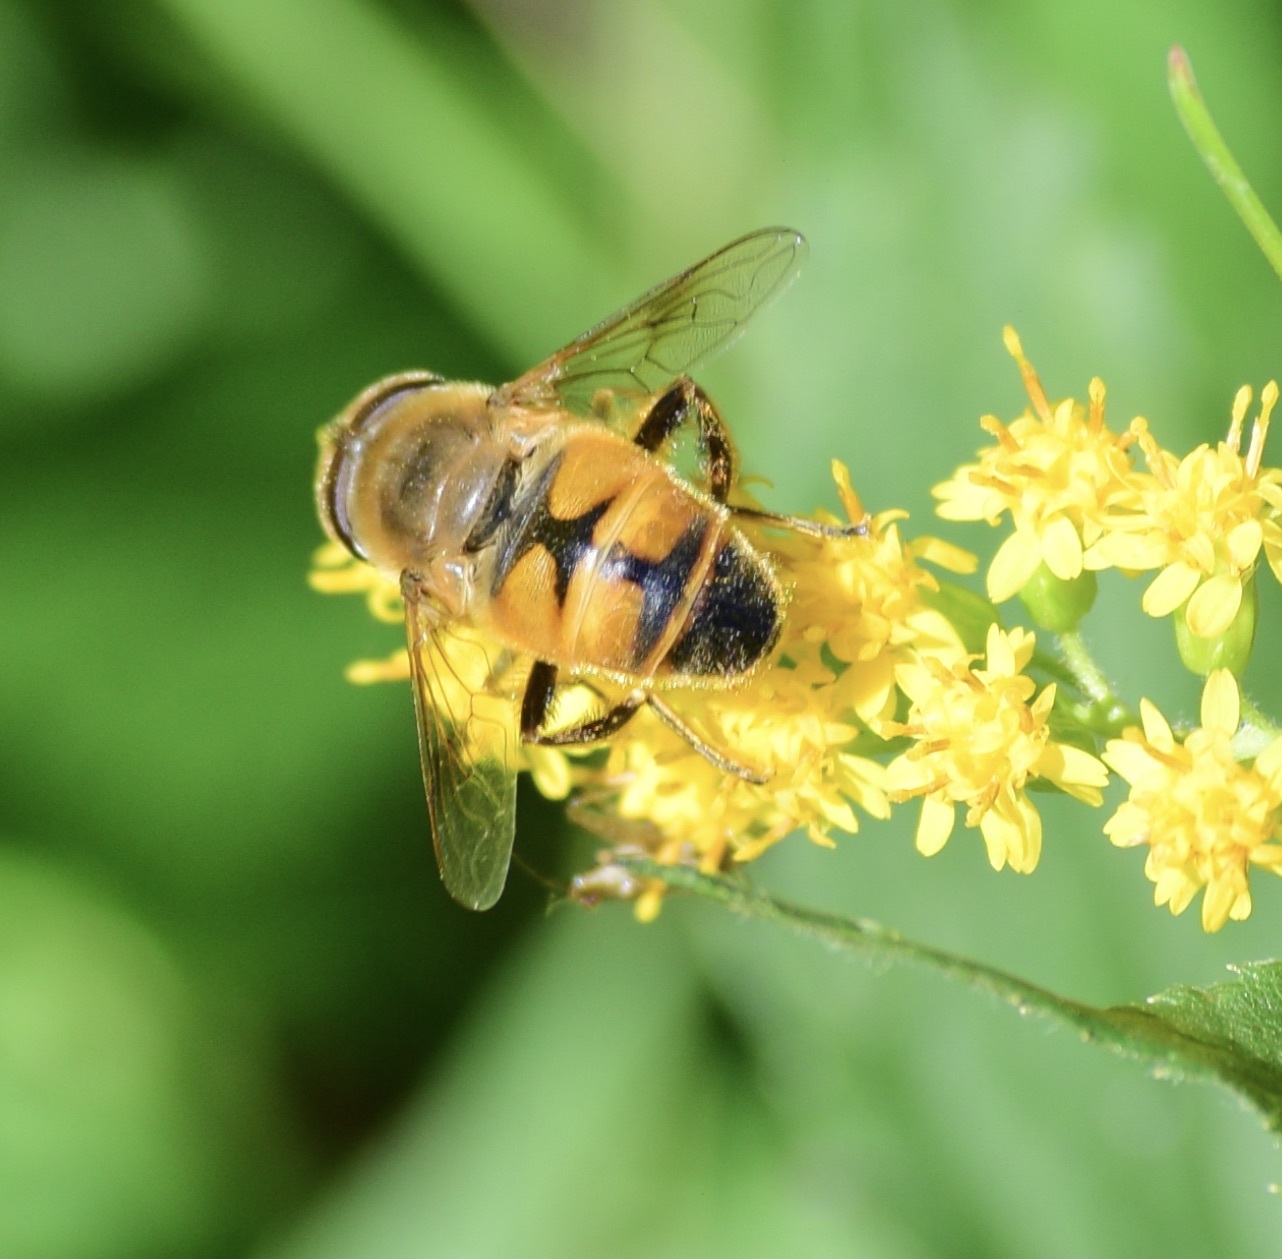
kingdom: Animalia
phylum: Arthropoda
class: Insecta
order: Diptera
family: Syrphidae
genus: Eristalis
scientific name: Eristalis tenax
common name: Drone fly
